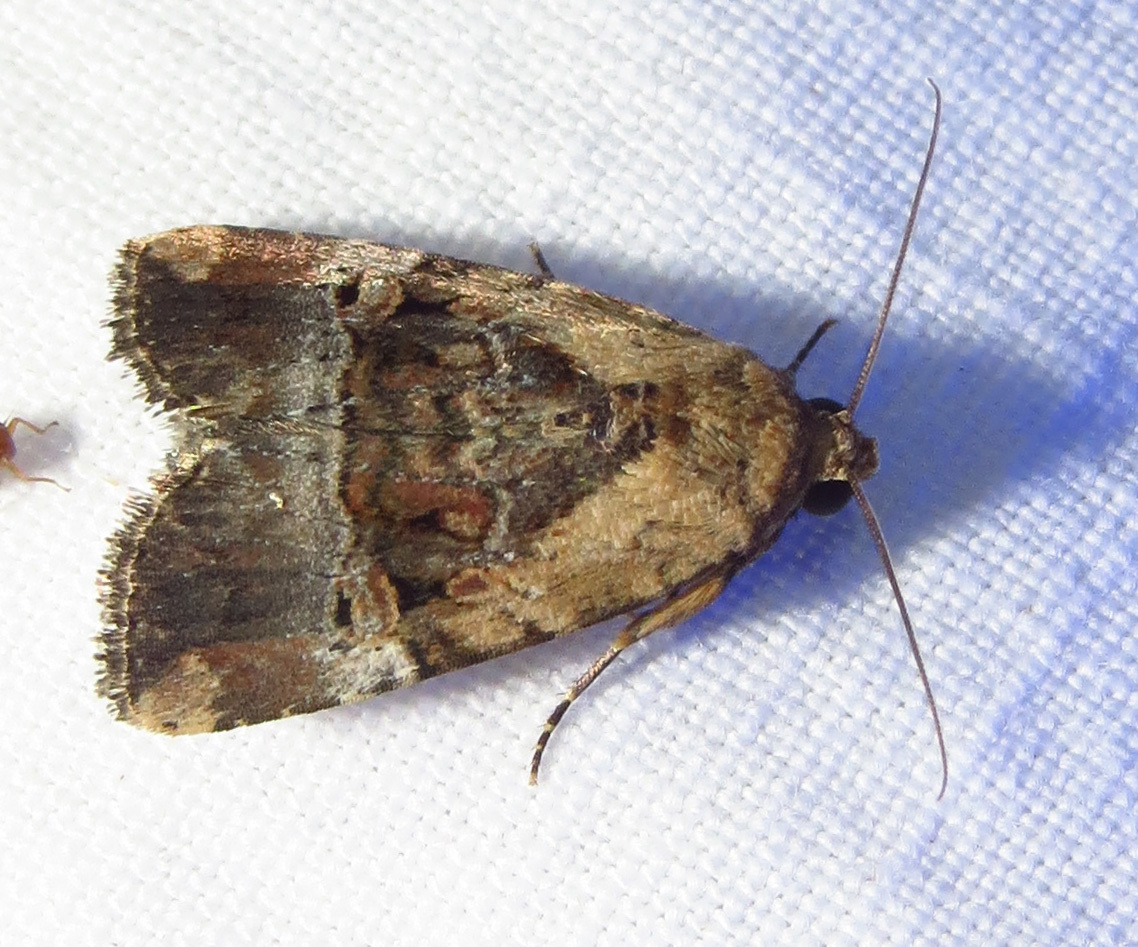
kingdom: Animalia
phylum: Arthropoda
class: Insecta
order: Lepidoptera
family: Noctuidae
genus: Elaphria
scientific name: Elaphria chalcedonia
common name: Chalcedony midget
